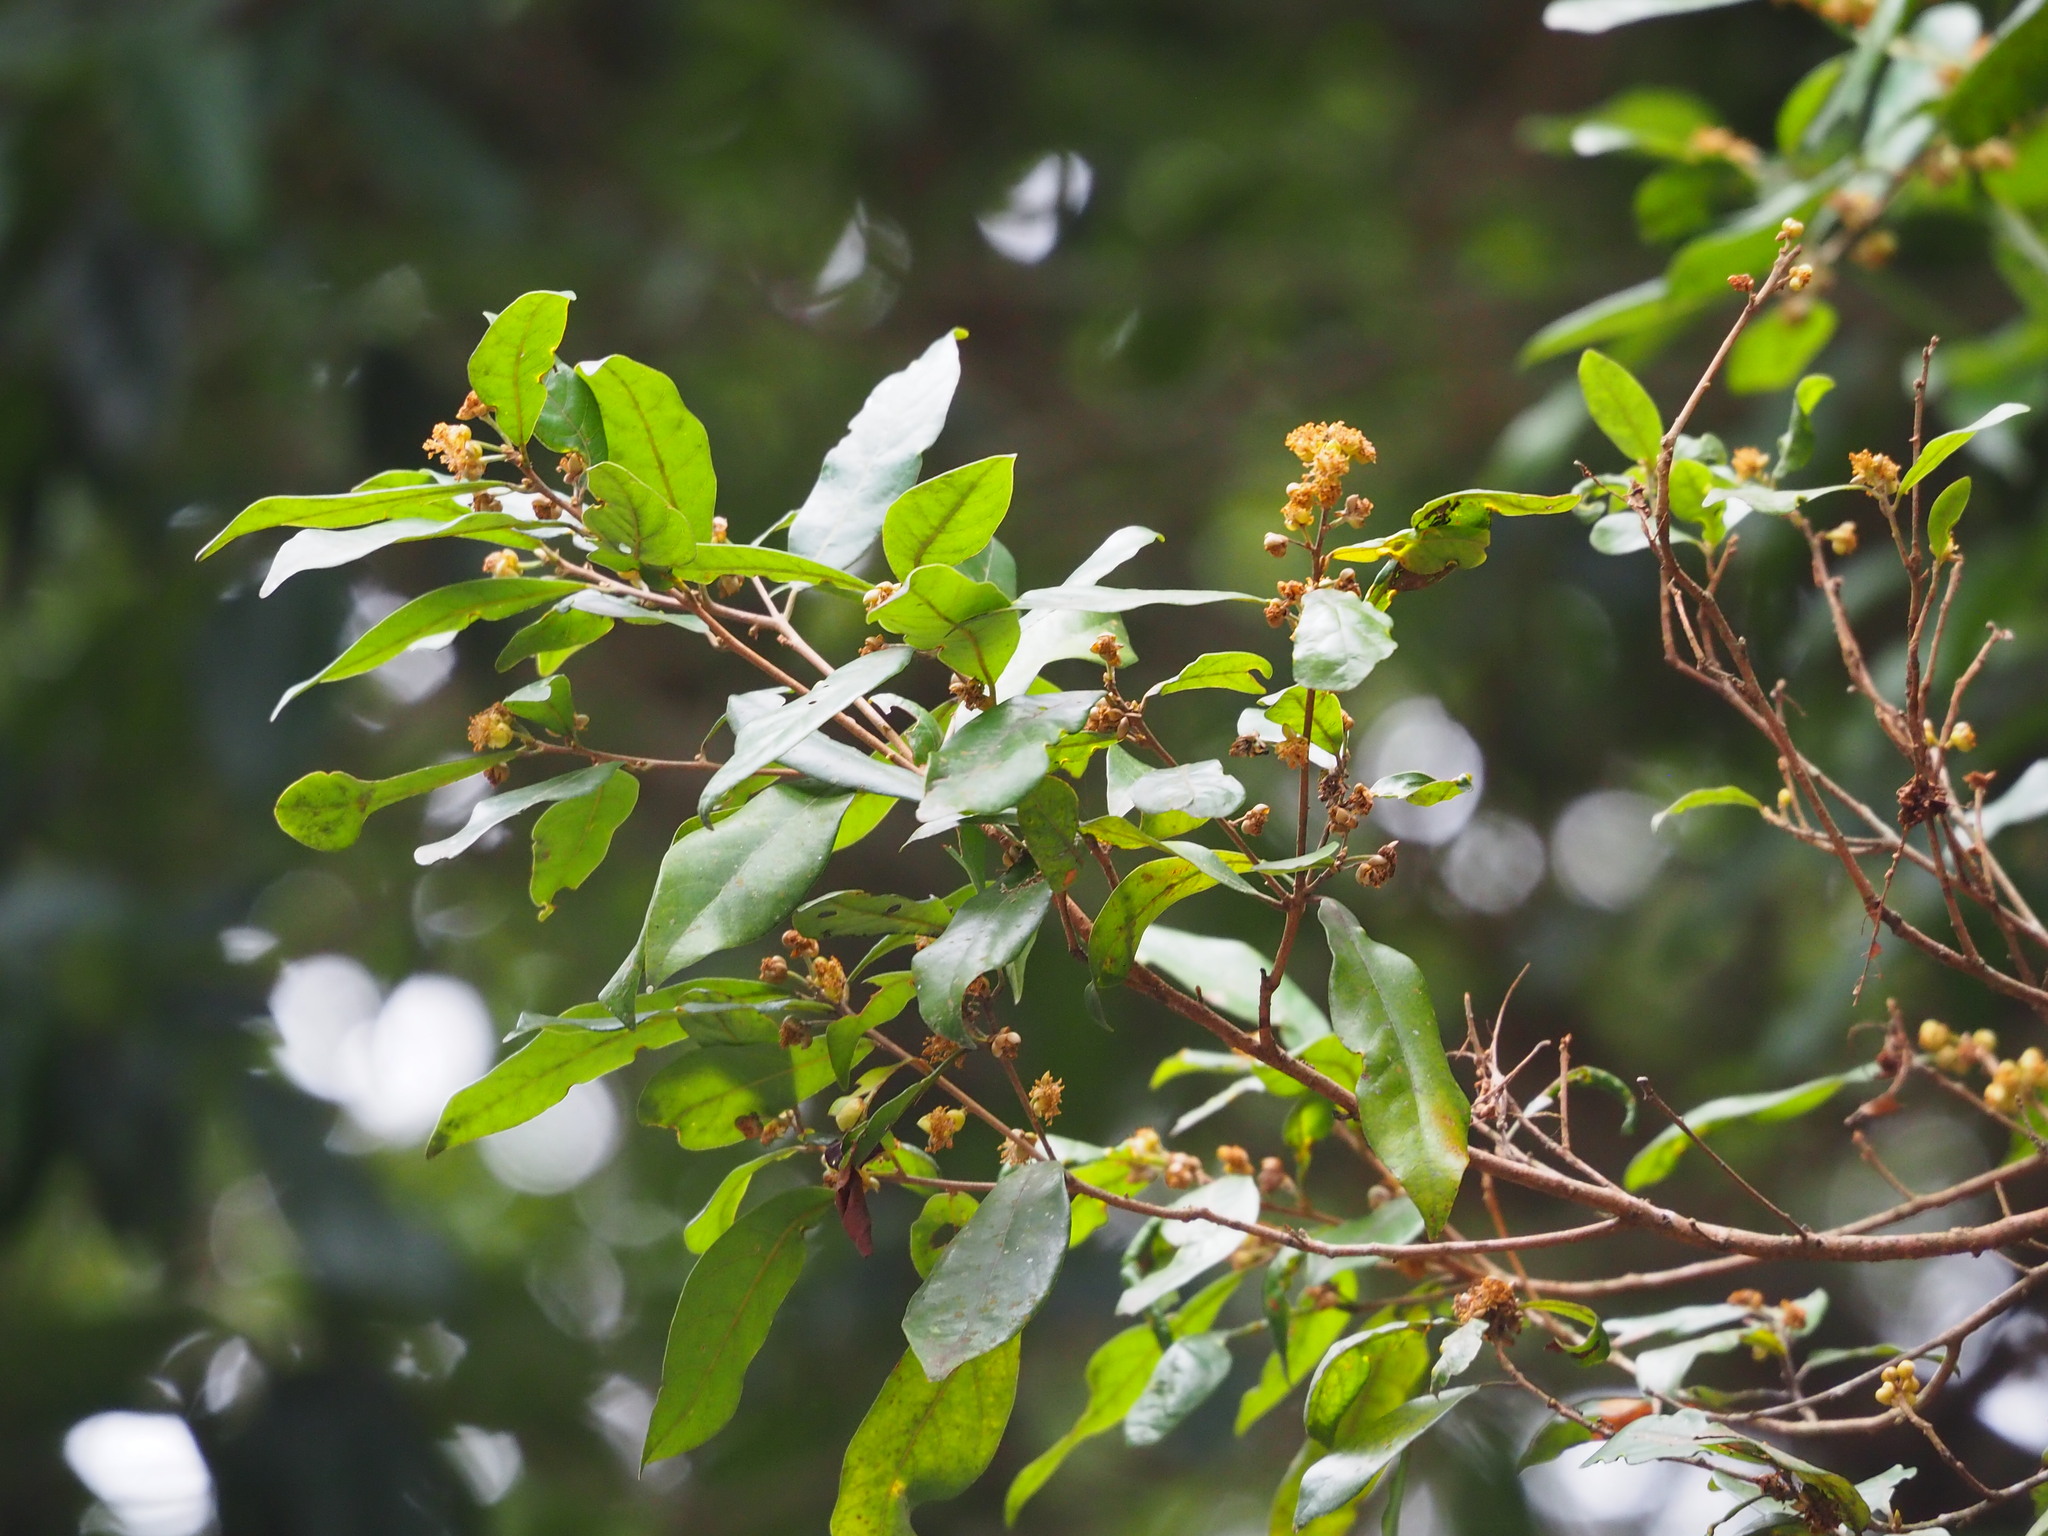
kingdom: Plantae
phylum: Tracheophyta
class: Magnoliopsida
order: Laurales
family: Lauraceae
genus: Litsea
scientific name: Litsea hypophaea
